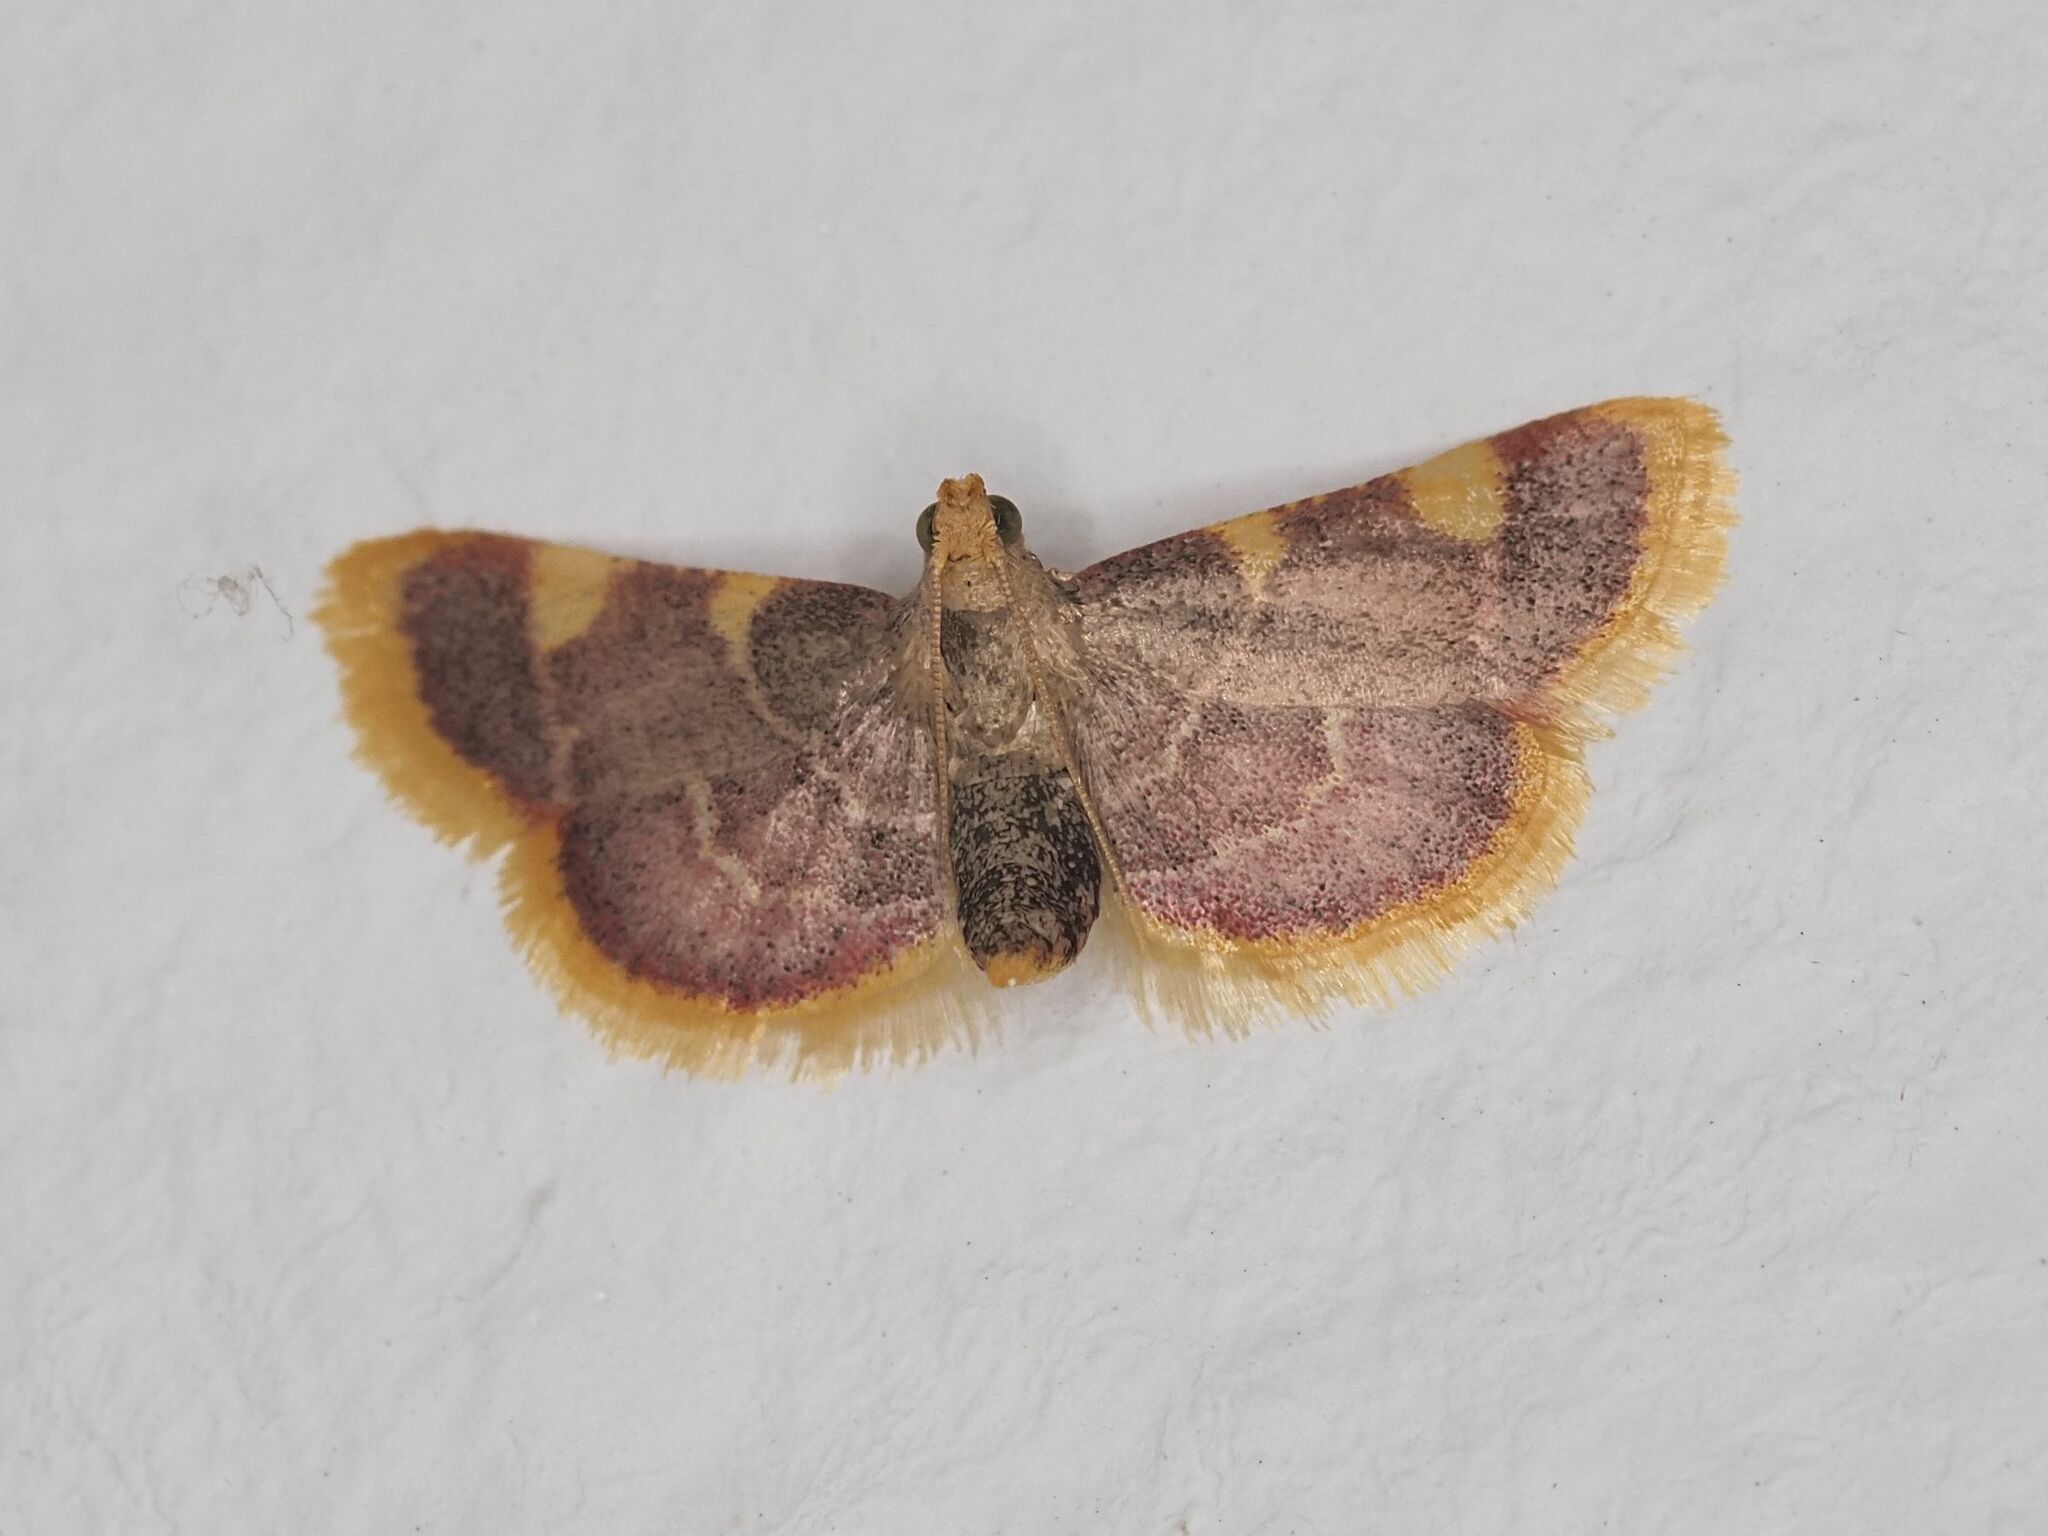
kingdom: Animalia
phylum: Arthropoda
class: Insecta
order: Lepidoptera
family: Pyralidae
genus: Hypsopygia
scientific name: Hypsopygia costalis
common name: Gold triangle
